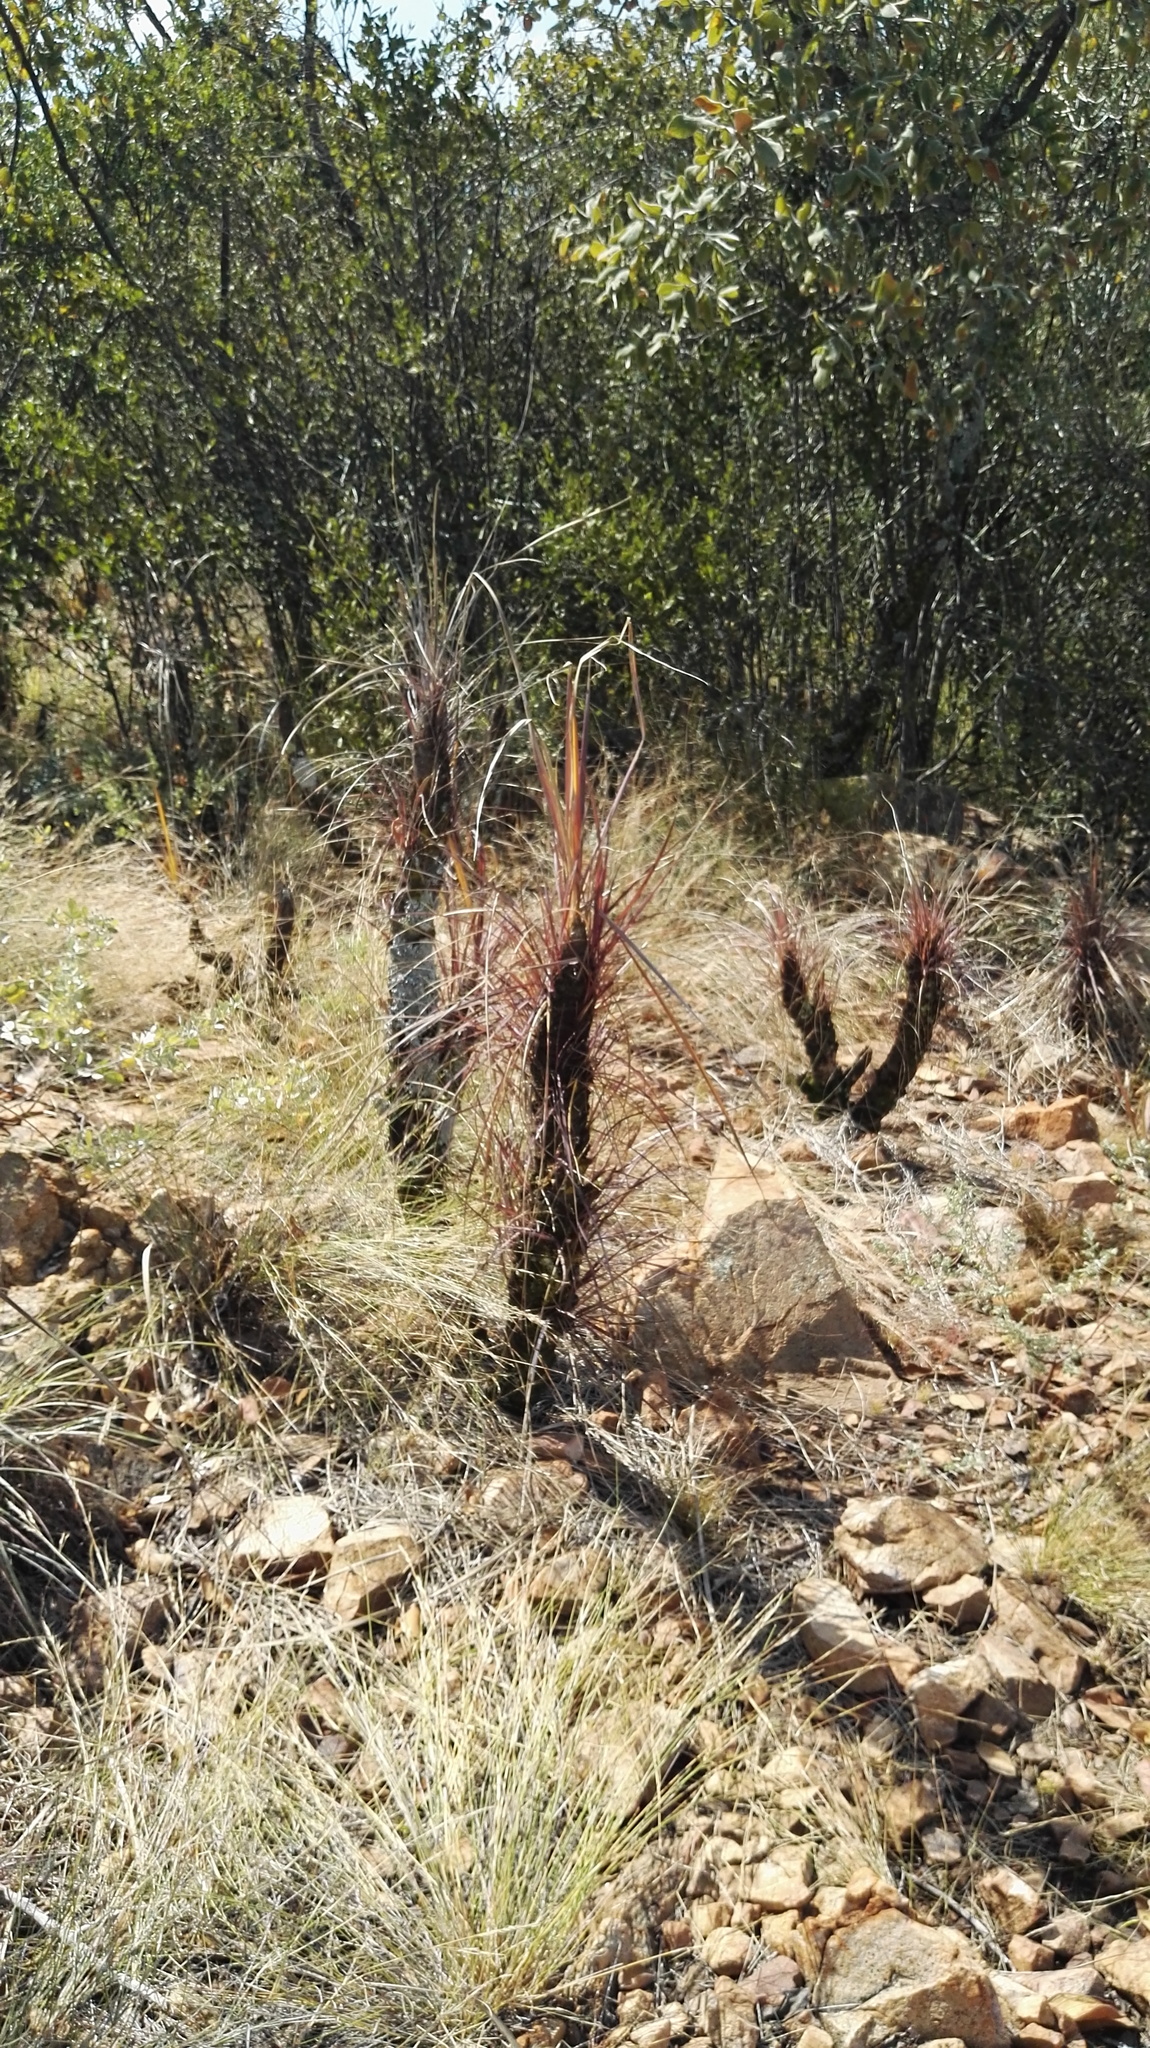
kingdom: Plantae
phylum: Tracheophyta
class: Liliopsida
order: Pandanales
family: Velloziaceae
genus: Xerophyta
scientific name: Xerophyta retinervis
